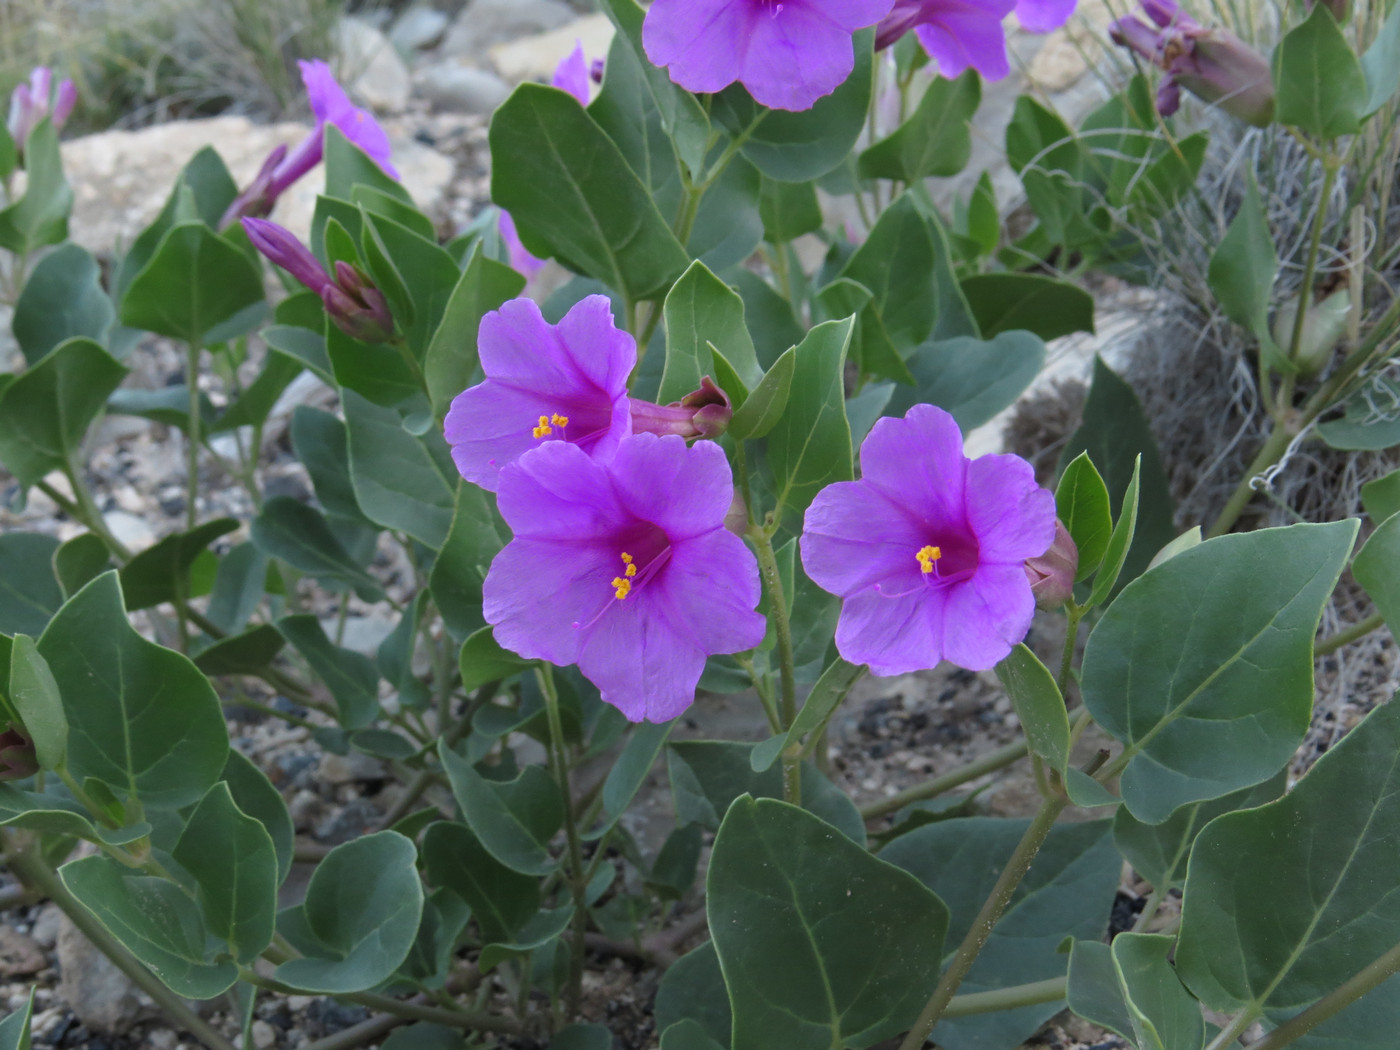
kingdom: Plantae
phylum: Tracheophyta
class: Magnoliopsida
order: Caryophyllales
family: Nyctaginaceae
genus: Mirabilis
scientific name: Mirabilis multiflora
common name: Froebel's four-o'clock
